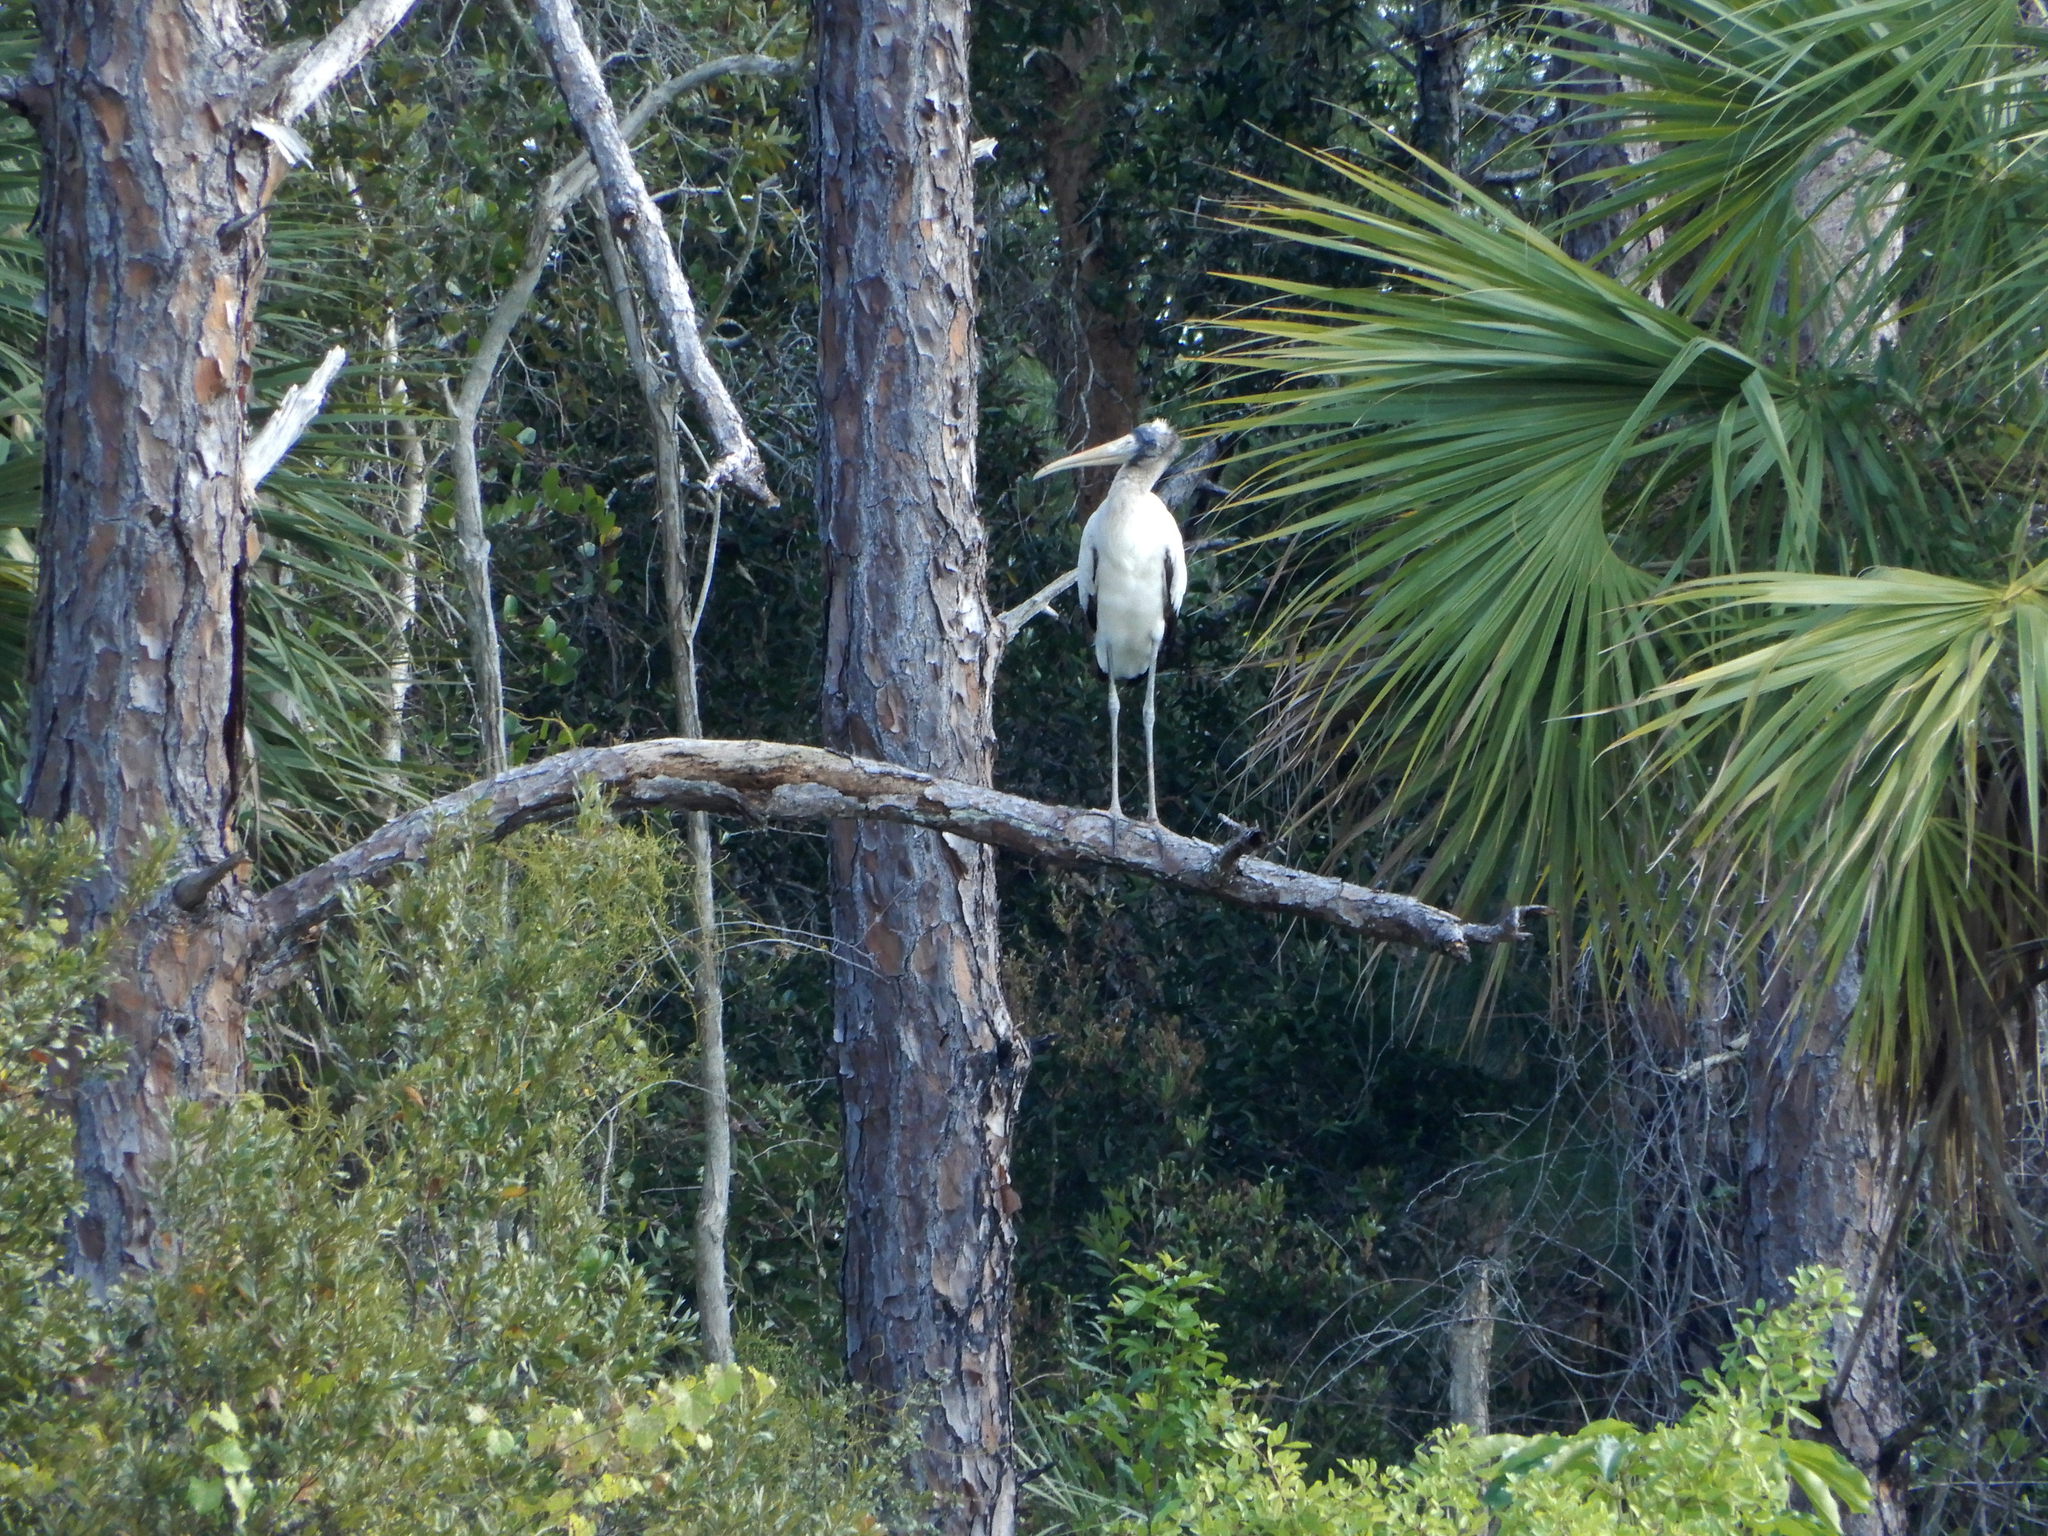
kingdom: Animalia
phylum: Chordata
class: Aves
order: Ciconiiformes
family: Ciconiidae
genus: Mycteria
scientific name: Mycteria americana
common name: Wood stork
